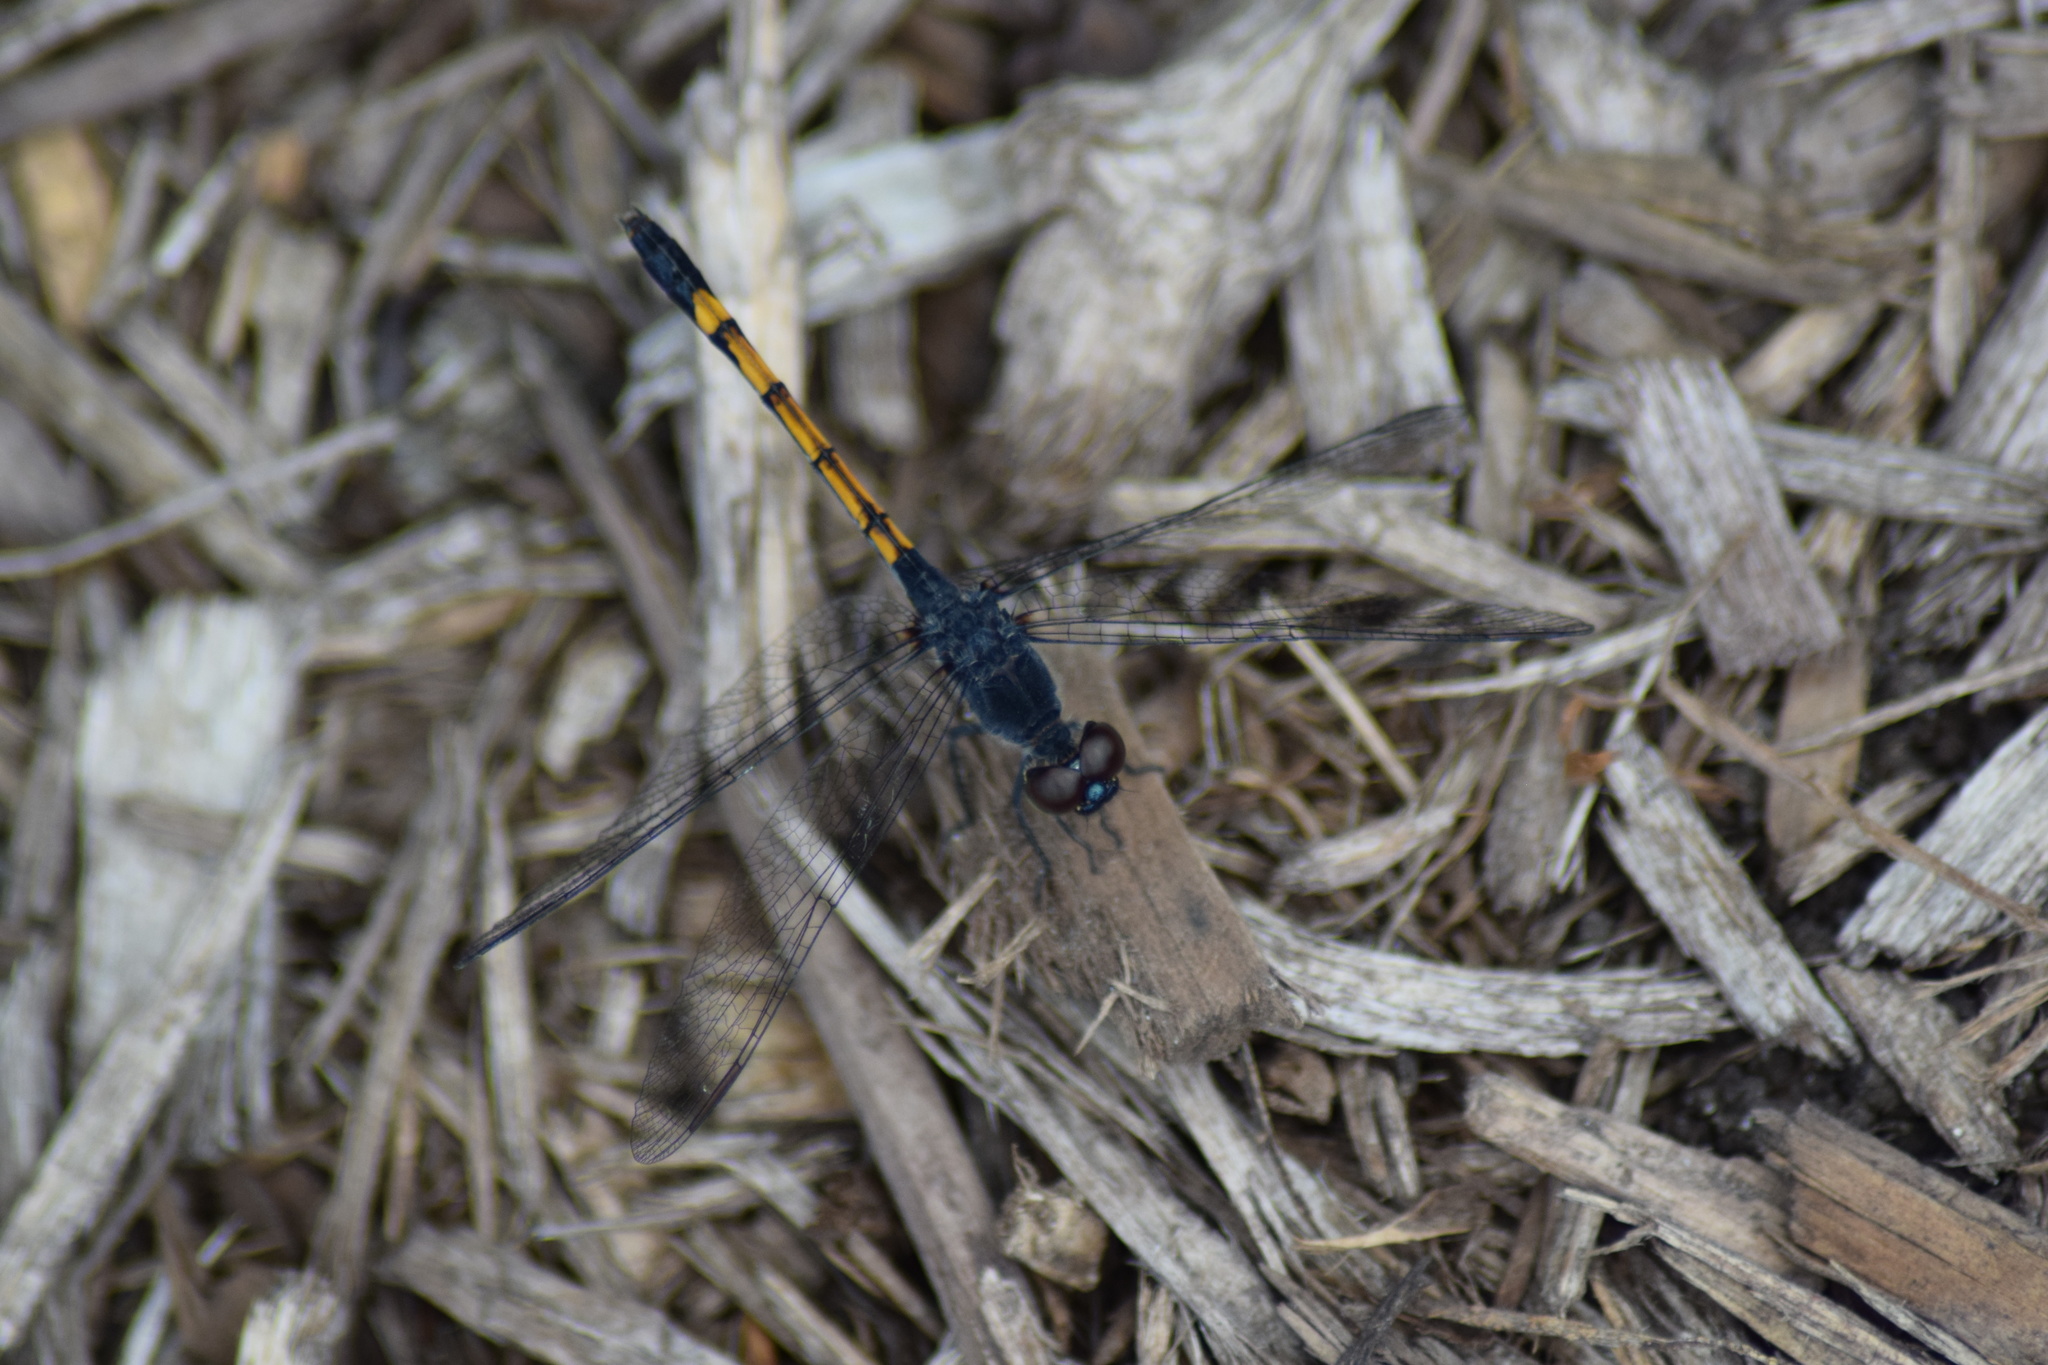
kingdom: Animalia
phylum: Arthropoda
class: Insecta
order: Odonata
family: Libellulidae
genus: Erythrodiplax
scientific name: Erythrodiplax berenice
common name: Seaside dragonlet
